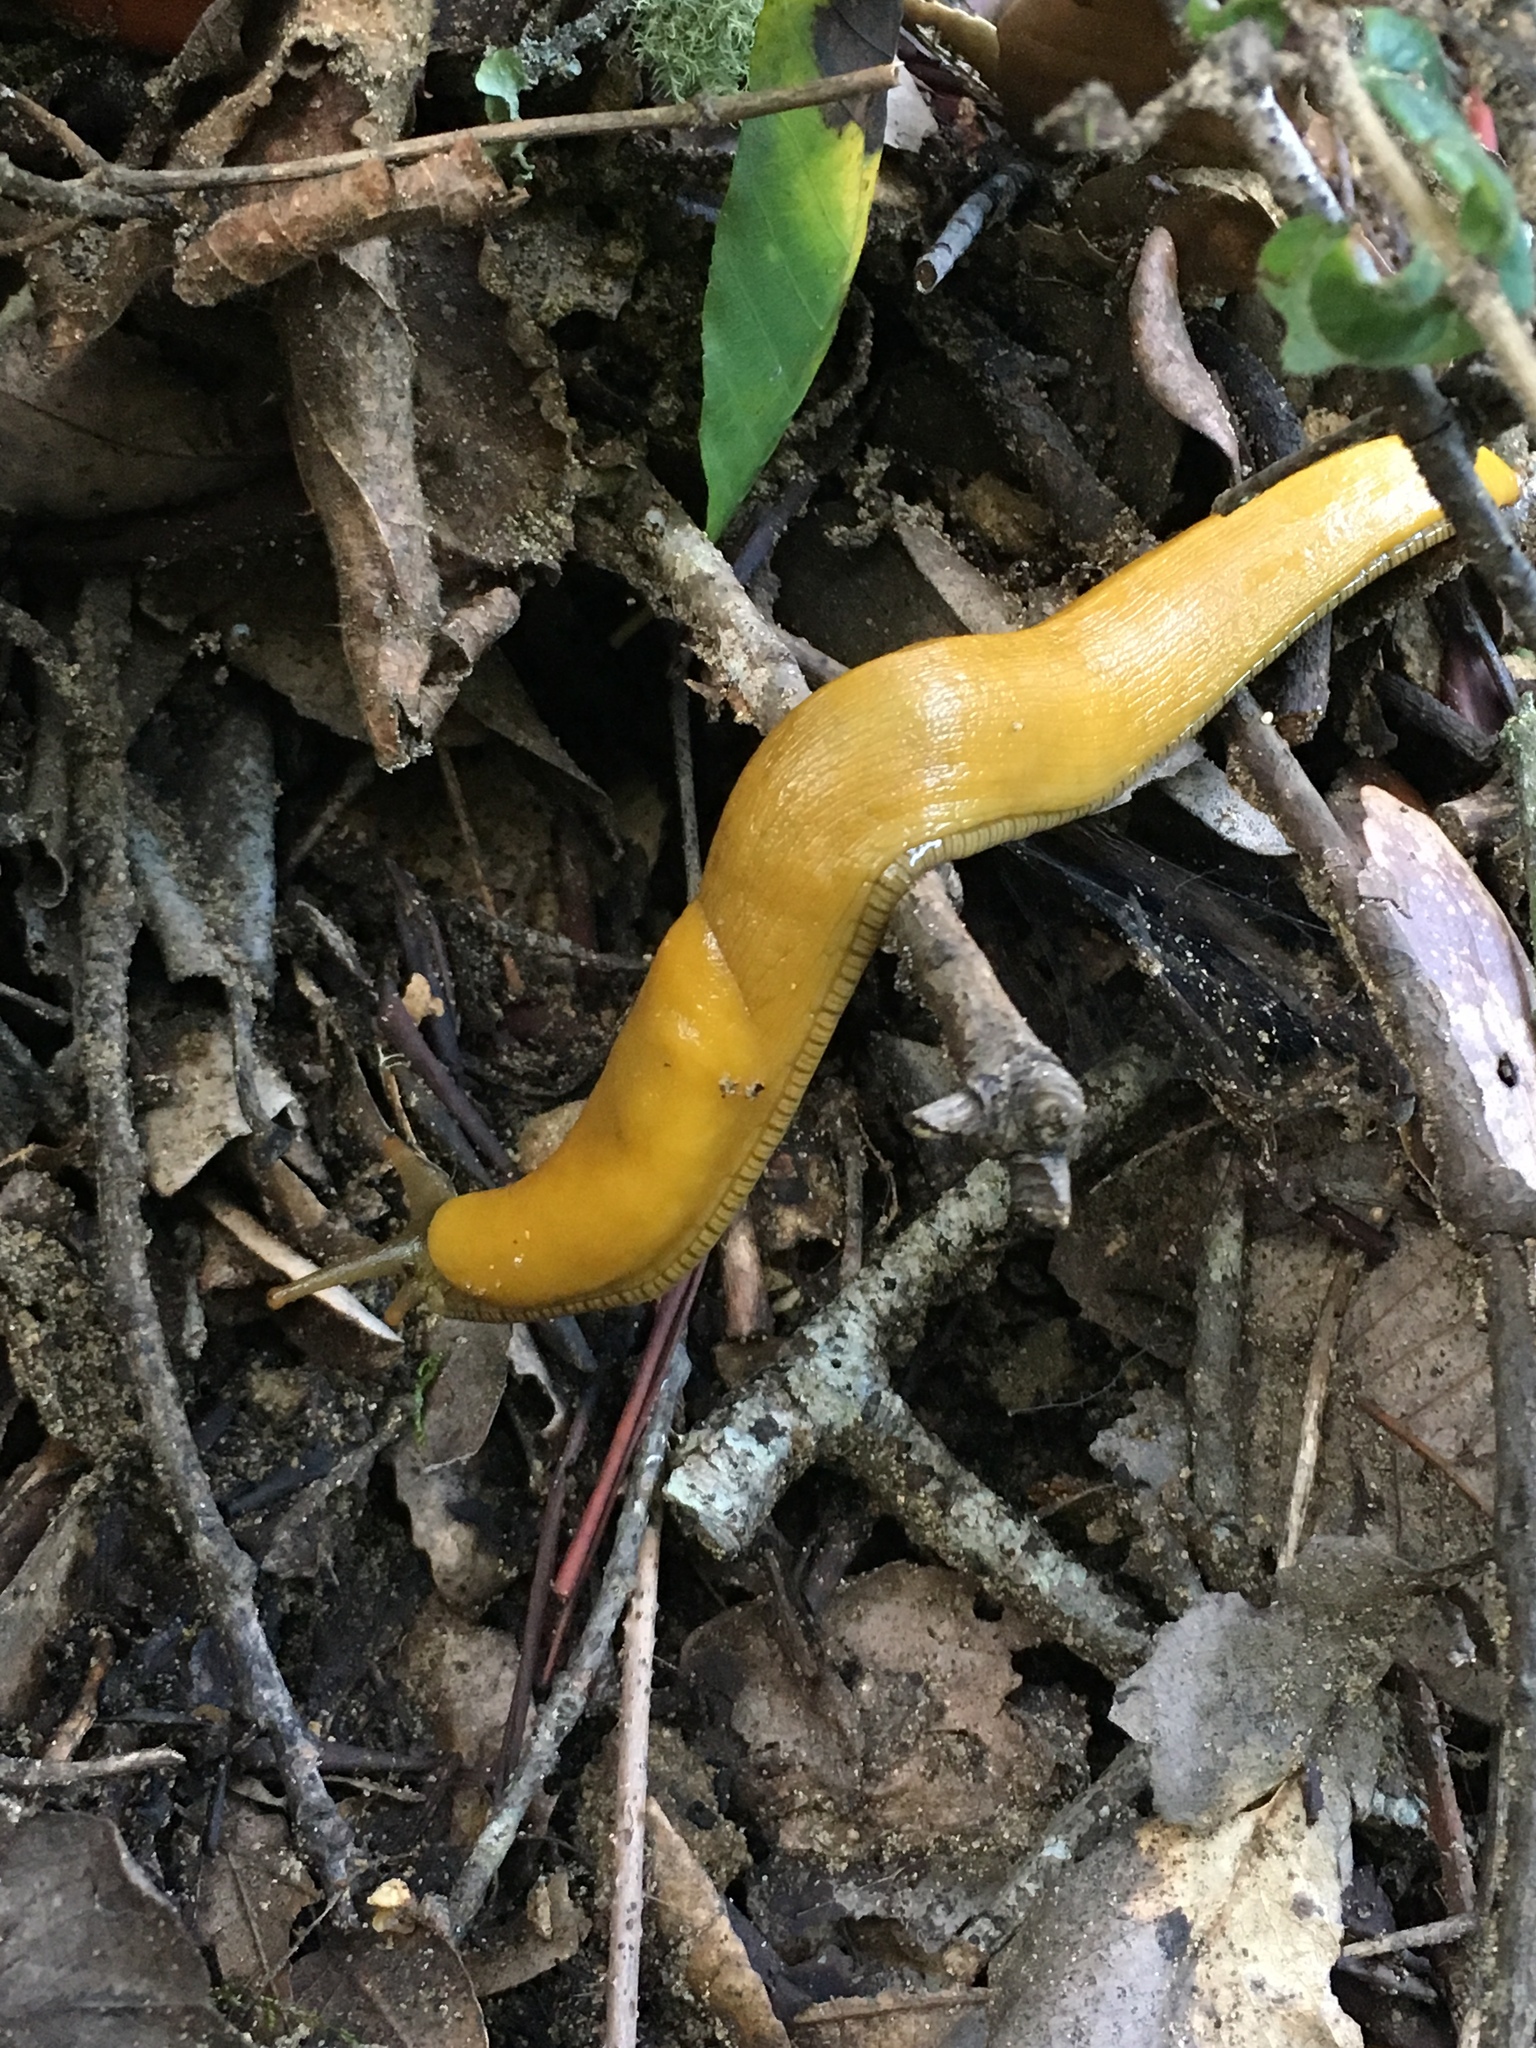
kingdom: Animalia
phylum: Mollusca
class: Gastropoda
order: Stylommatophora
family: Ariolimacidae
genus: Ariolimax
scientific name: Ariolimax stramineus
